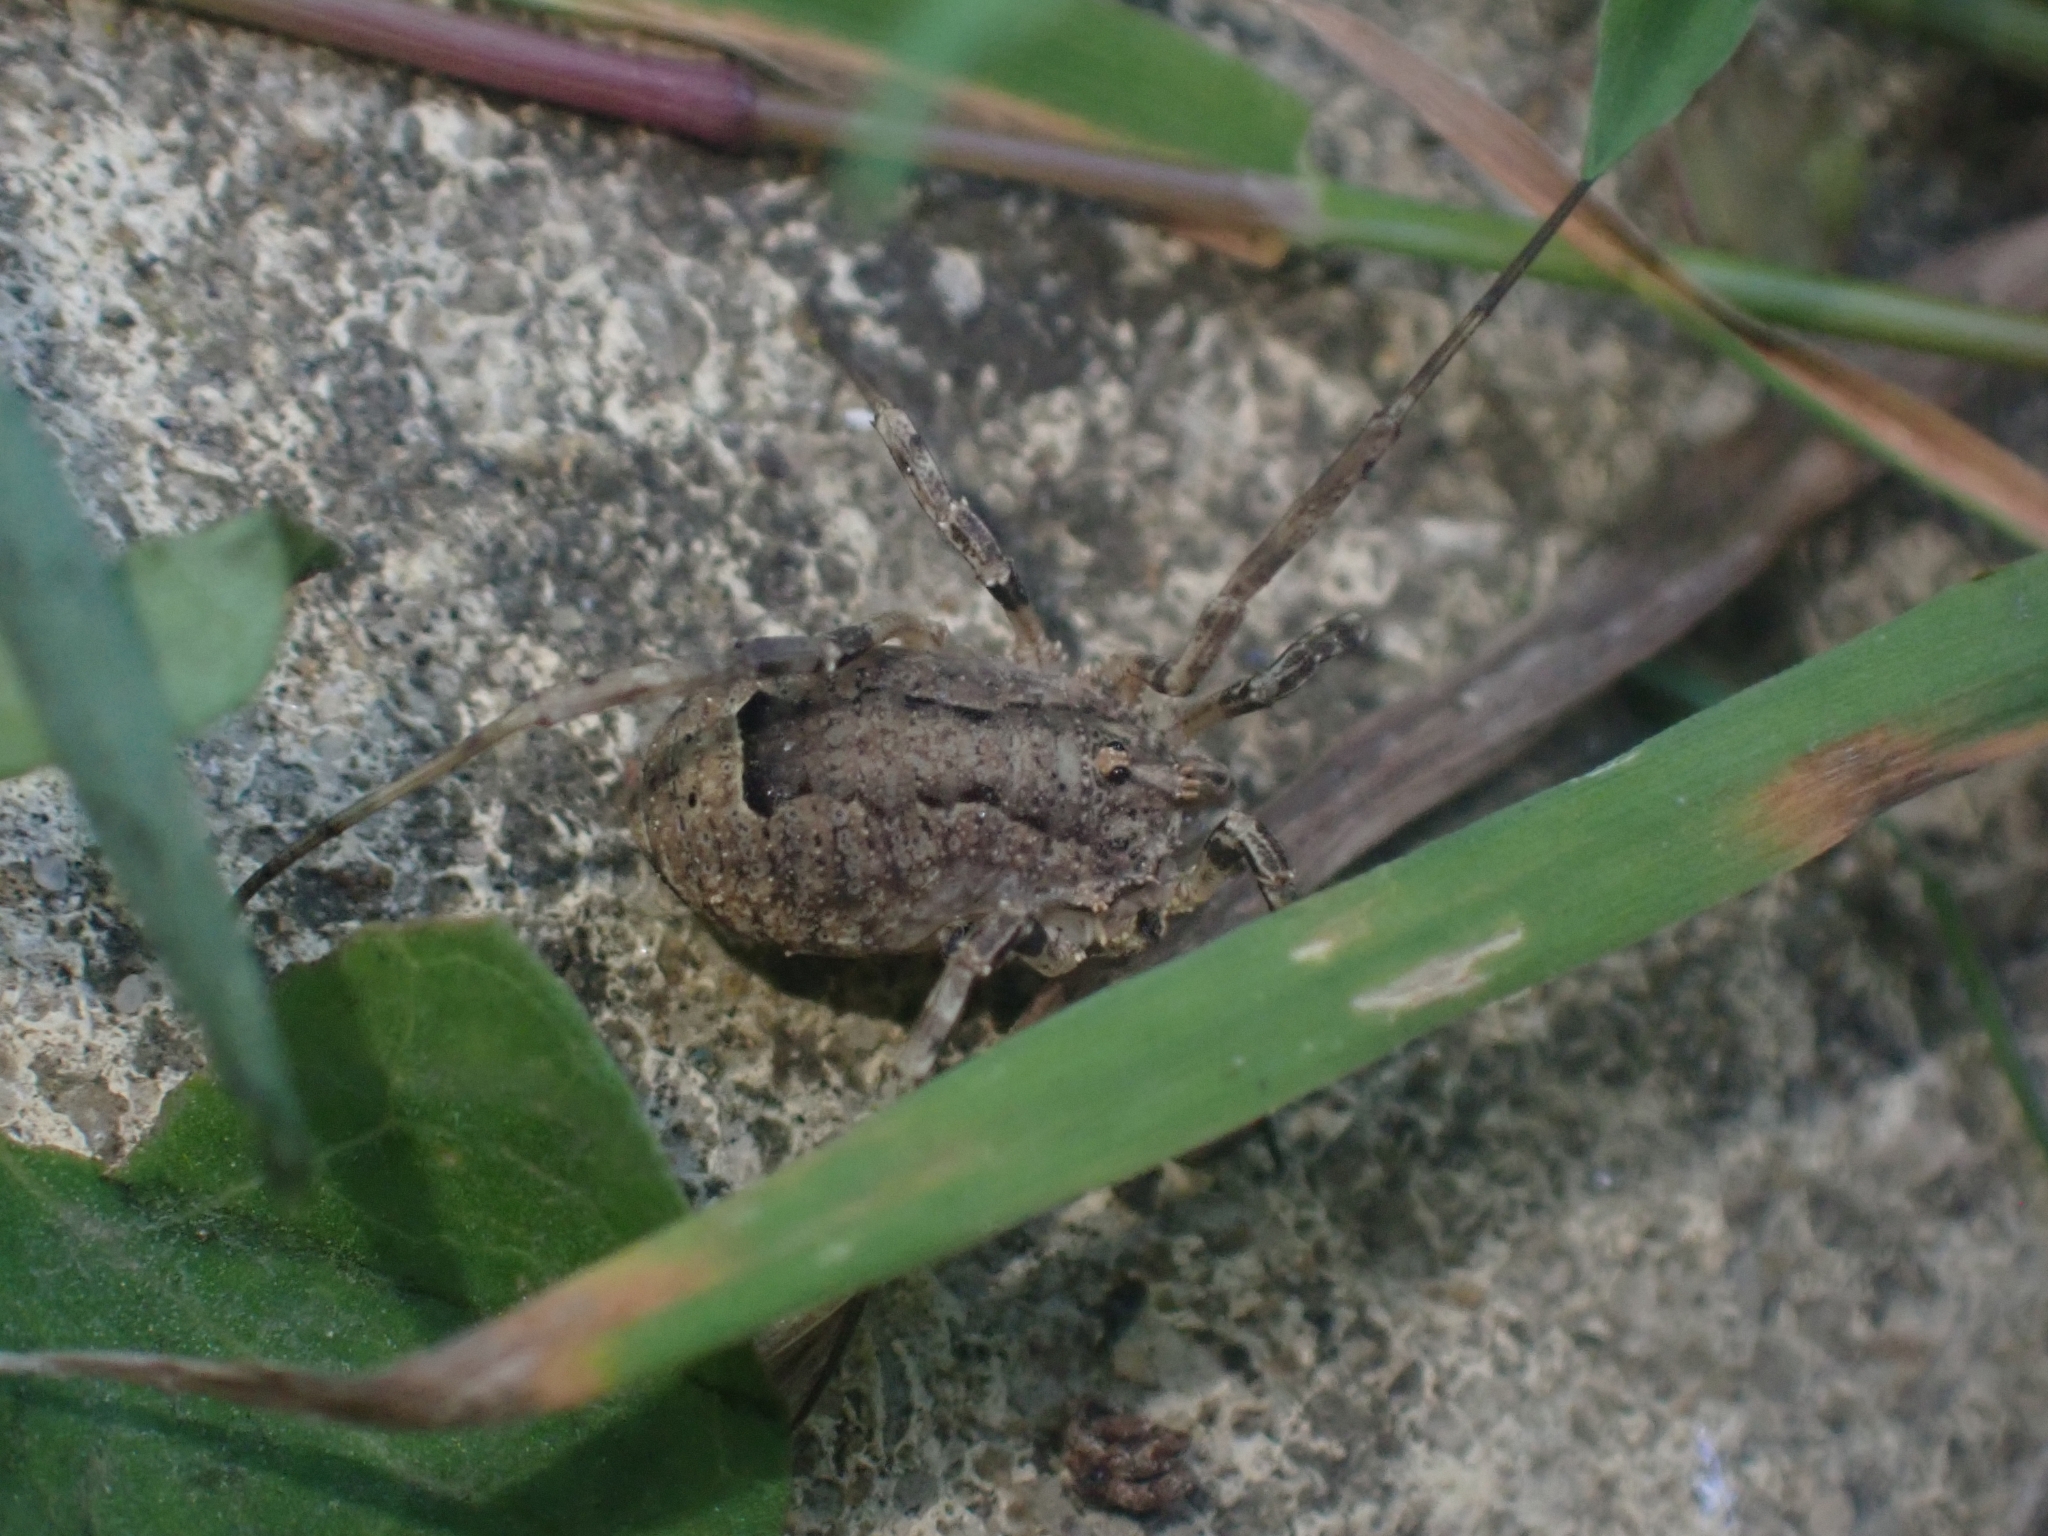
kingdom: Animalia
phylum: Arthropoda
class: Arachnida
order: Opiliones
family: Phalangiidae
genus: Odiellus
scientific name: Odiellus spinosus
